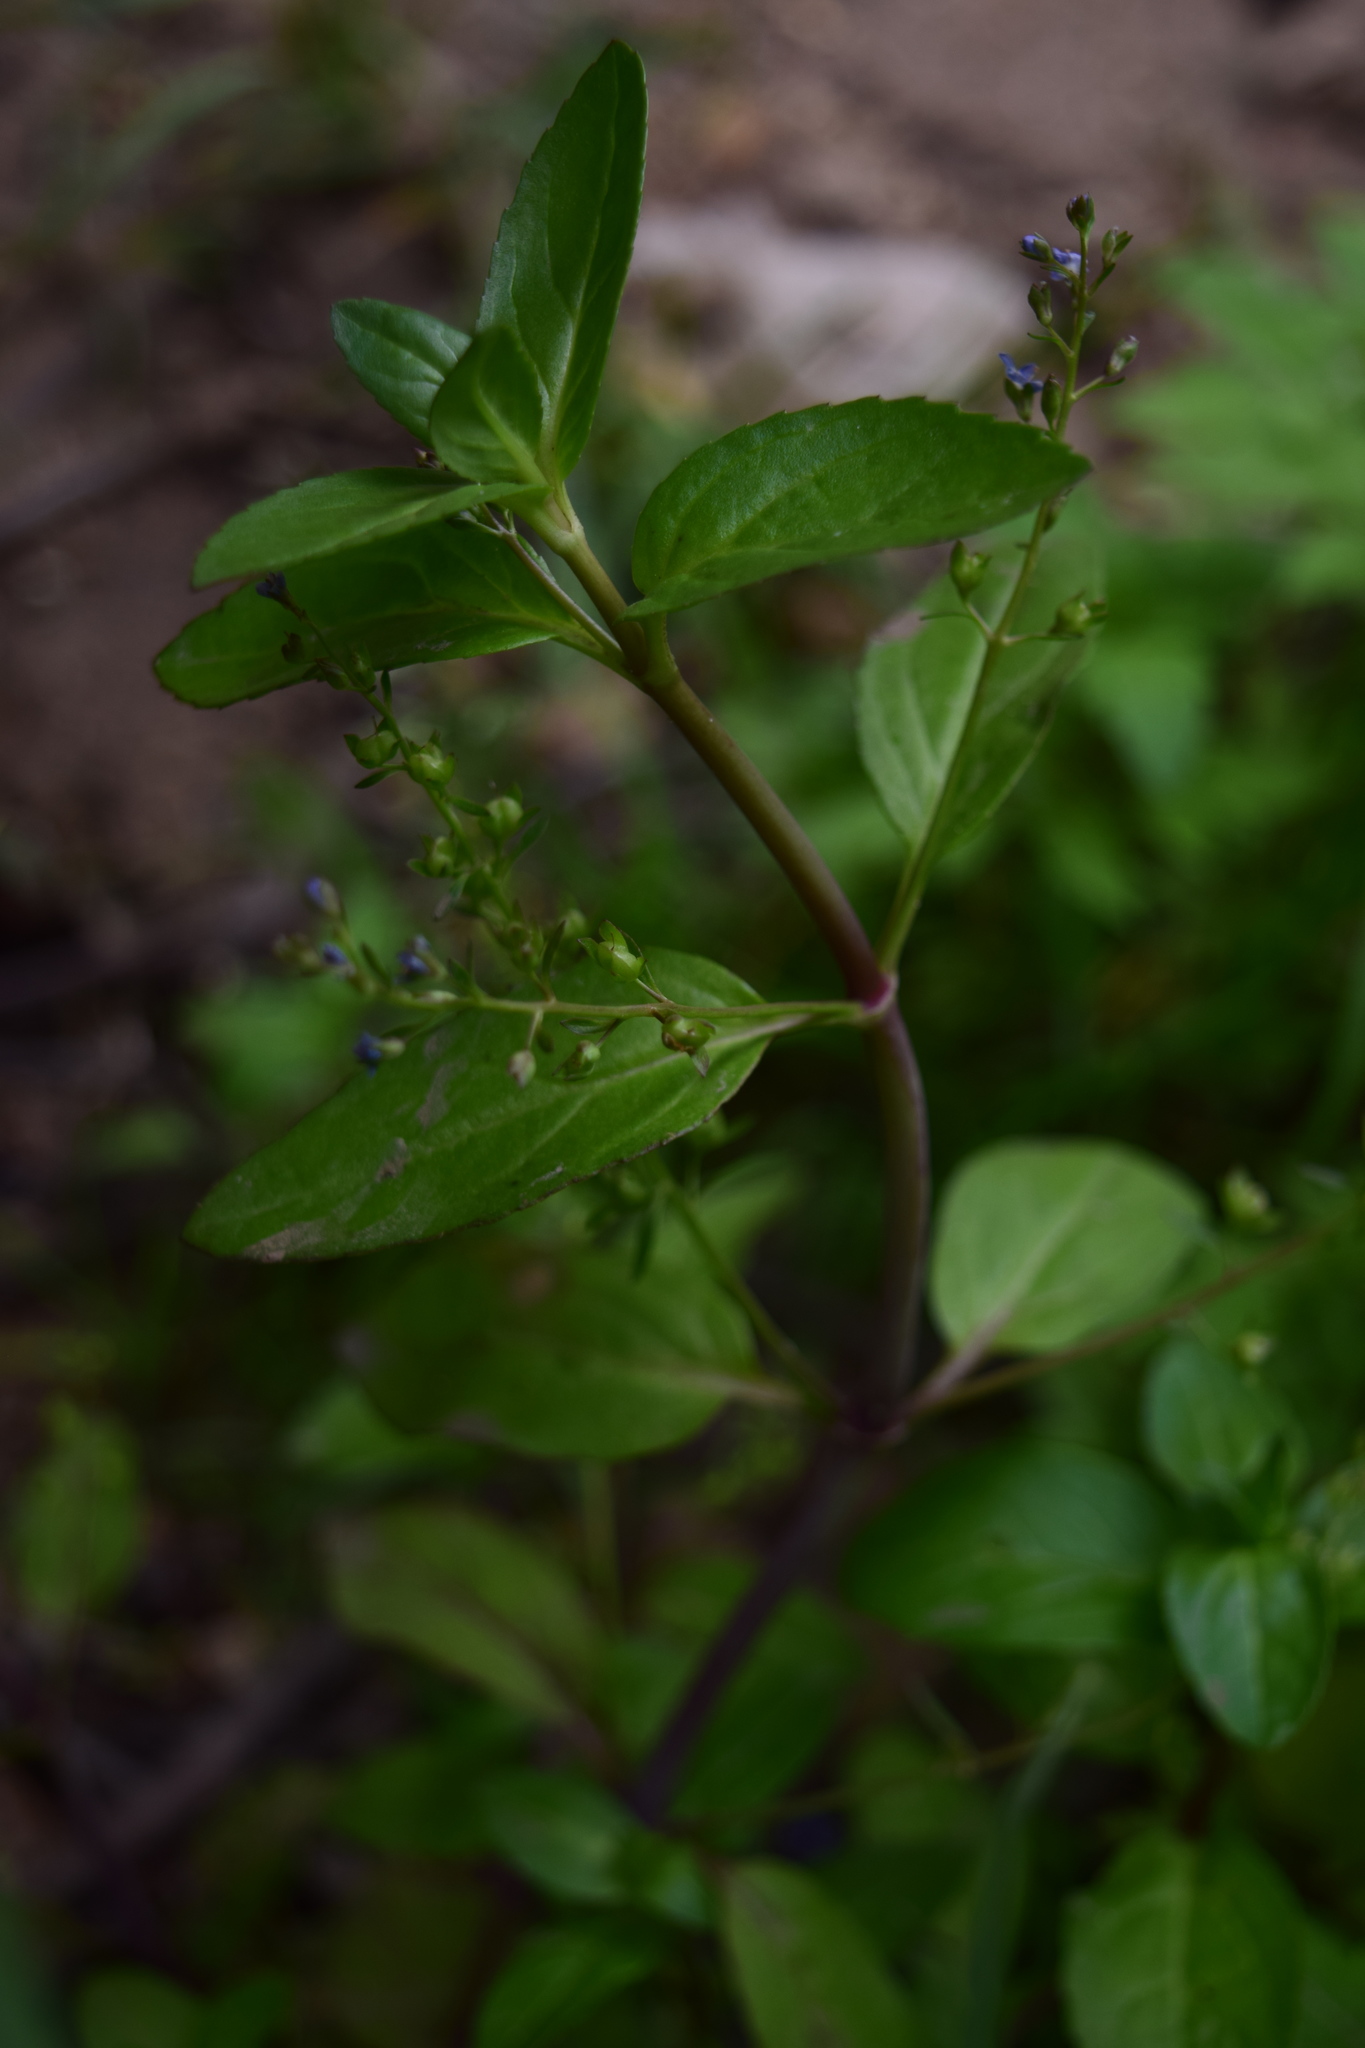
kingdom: Plantae
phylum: Tracheophyta
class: Magnoliopsida
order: Lamiales
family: Plantaginaceae
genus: Veronica
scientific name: Veronica beccabunga
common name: Brooklime
